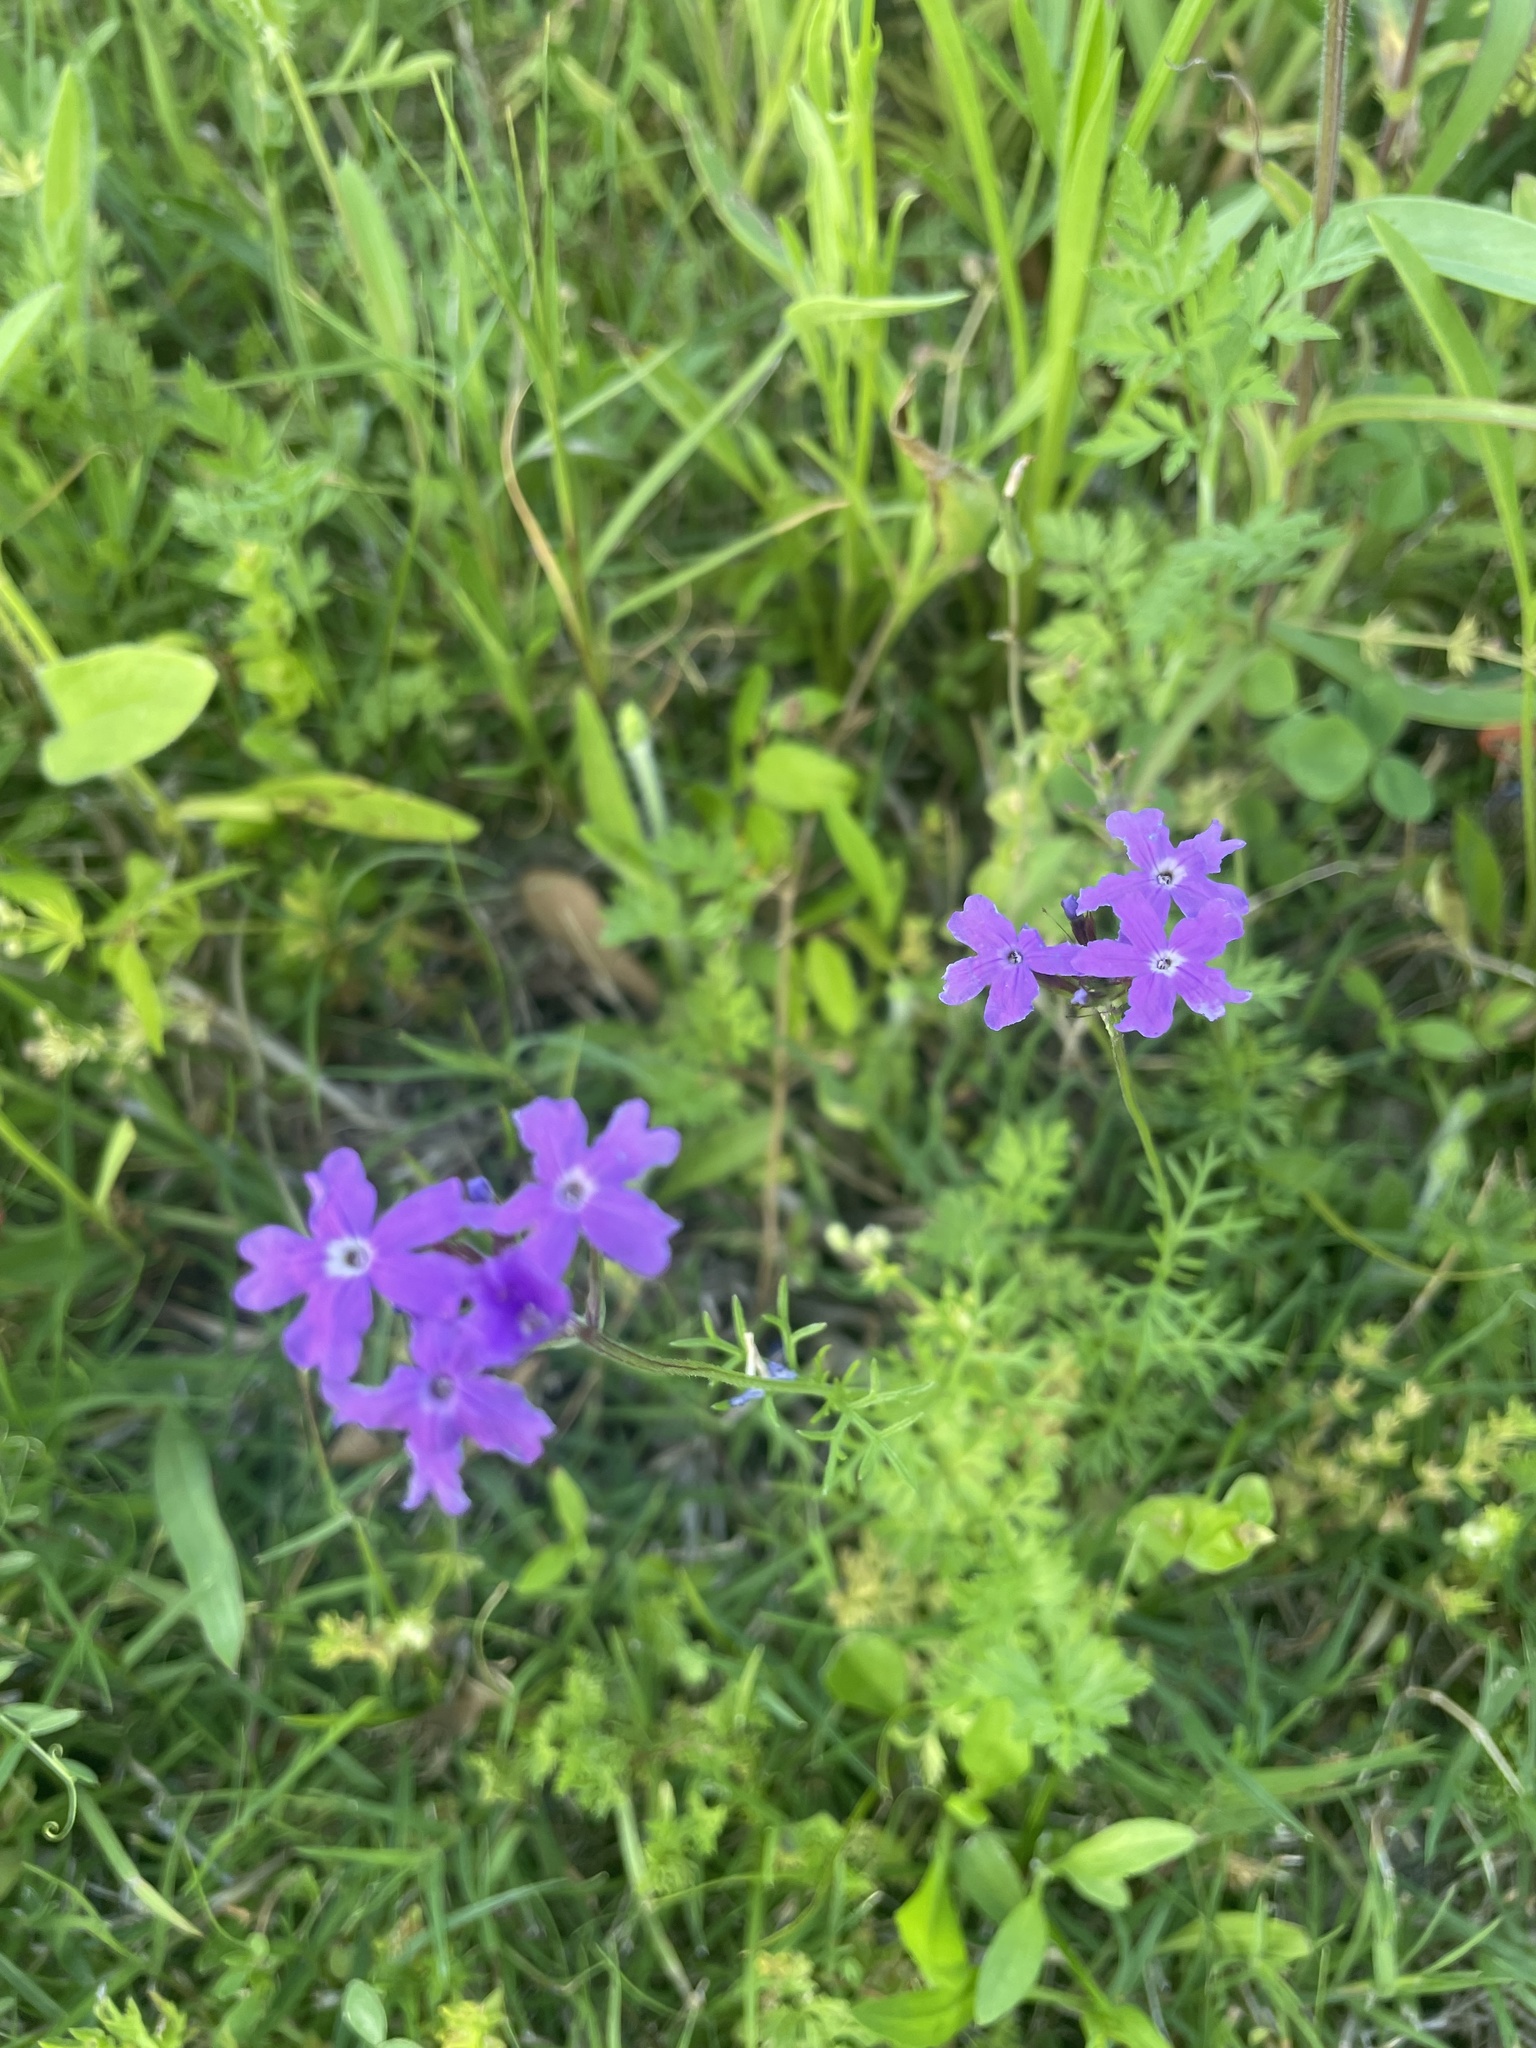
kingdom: Plantae
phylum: Tracheophyta
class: Magnoliopsida
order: Lamiales
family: Verbenaceae
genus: Verbena
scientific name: Verbena bipinnatifida
